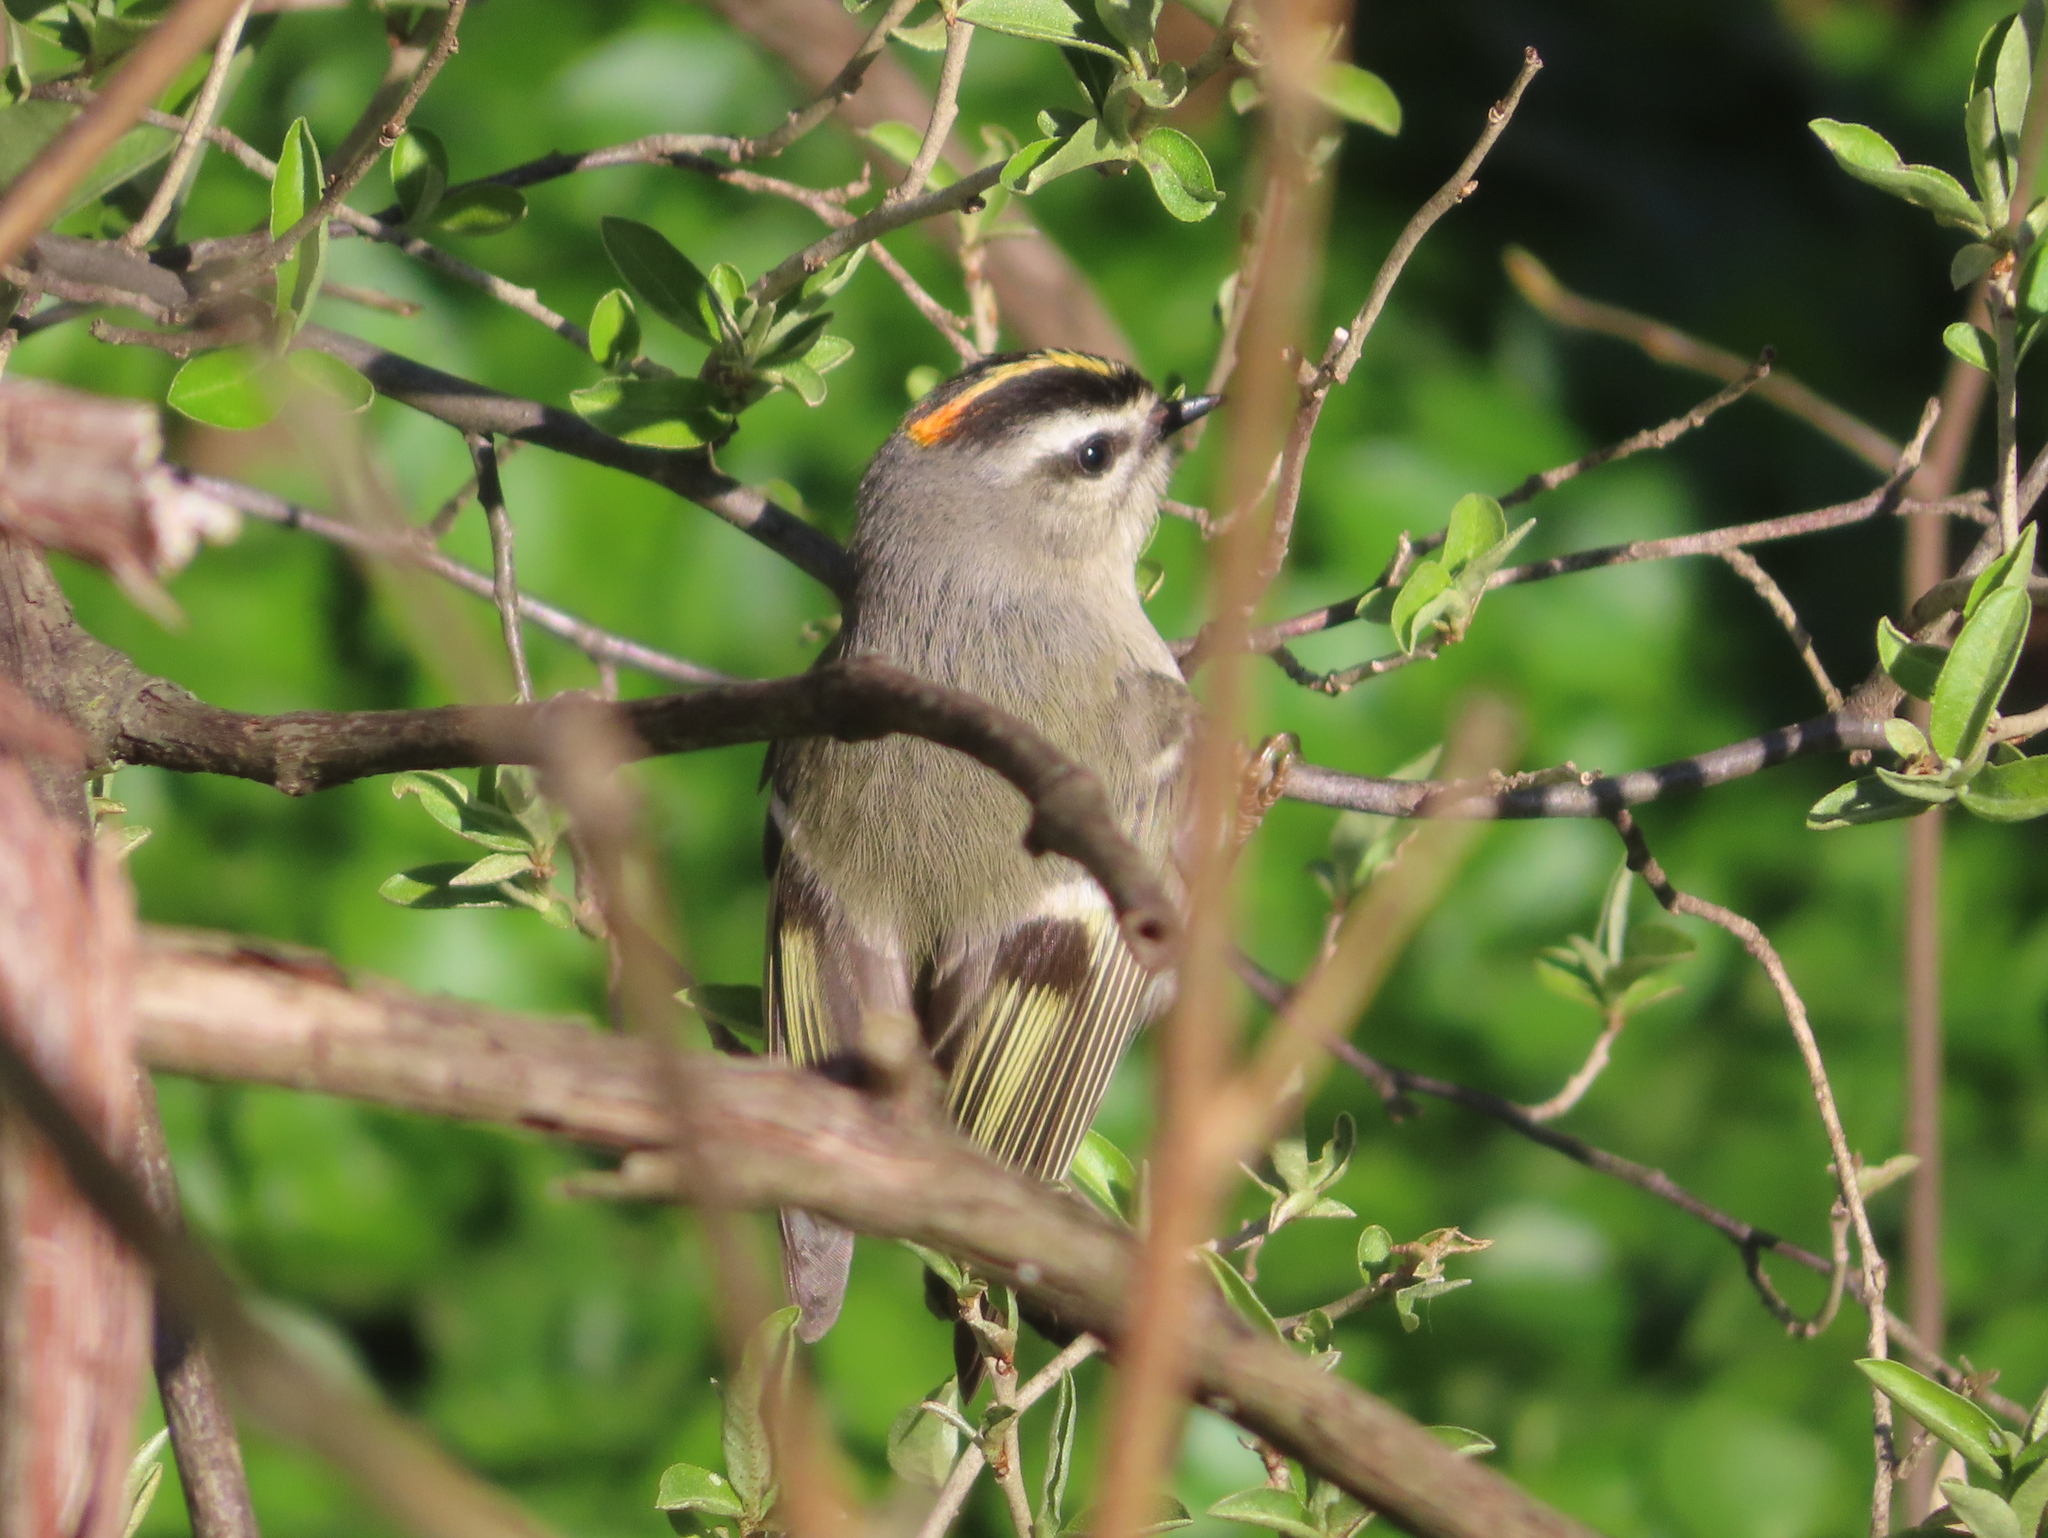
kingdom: Animalia
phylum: Chordata
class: Aves
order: Passeriformes
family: Regulidae
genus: Regulus
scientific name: Regulus satrapa
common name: Golden-crowned kinglet
